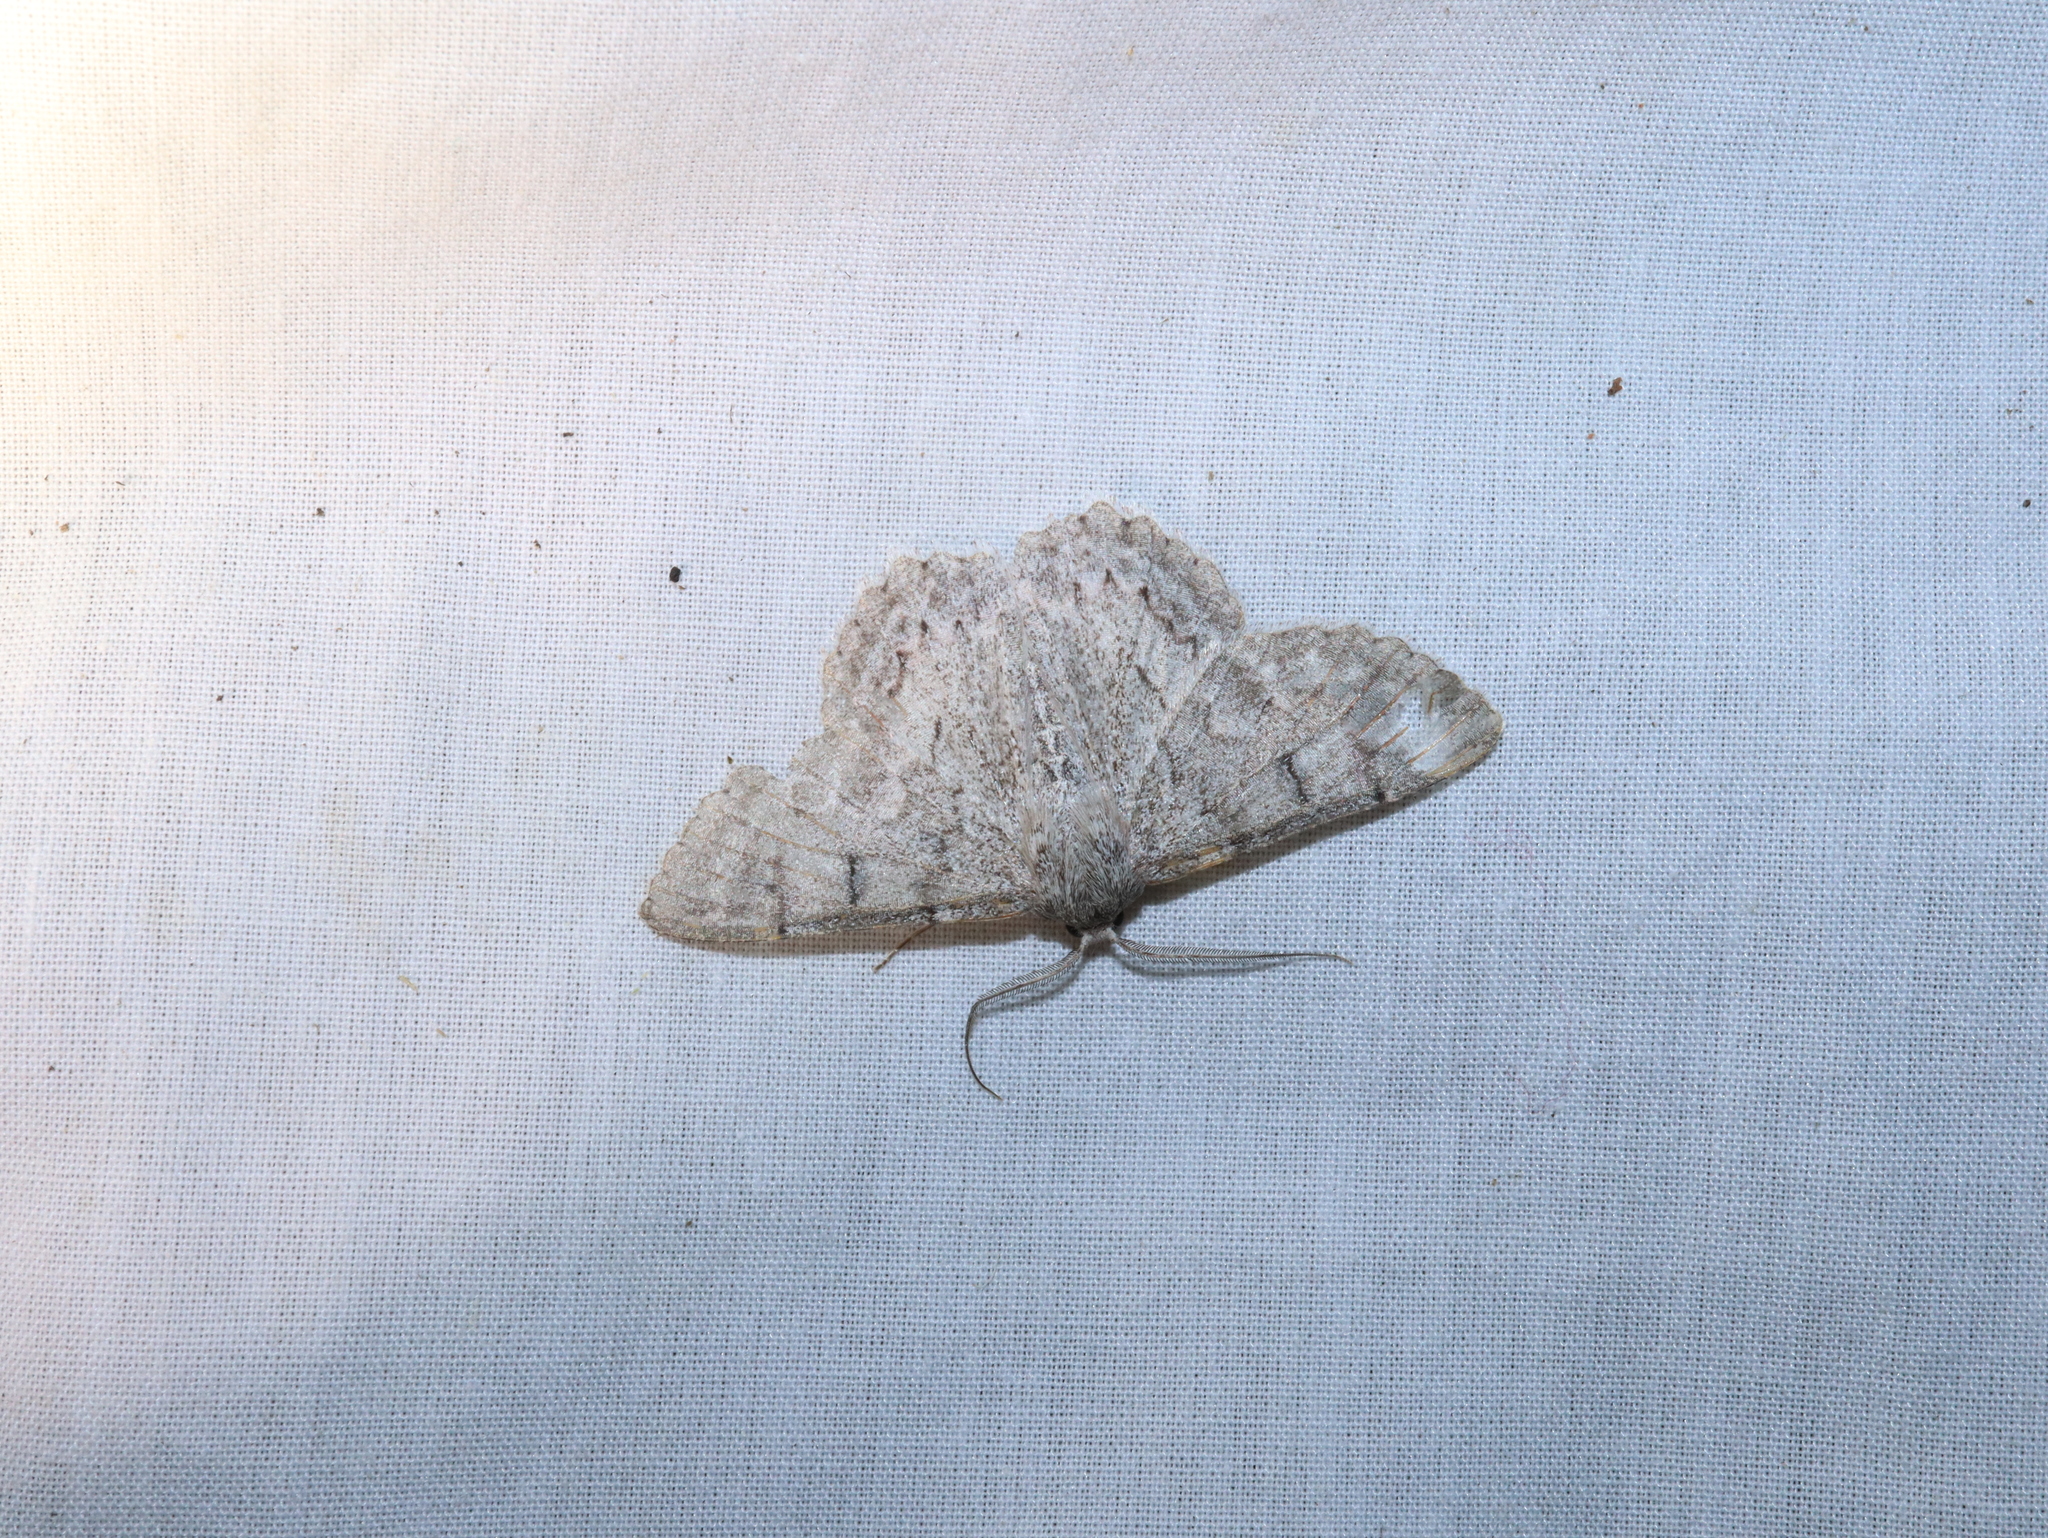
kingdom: Animalia
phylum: Arthropoda
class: Insecta
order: Lepidoptera
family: Geometridae
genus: Crypsiphona
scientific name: Crypsiphona ocultaria
